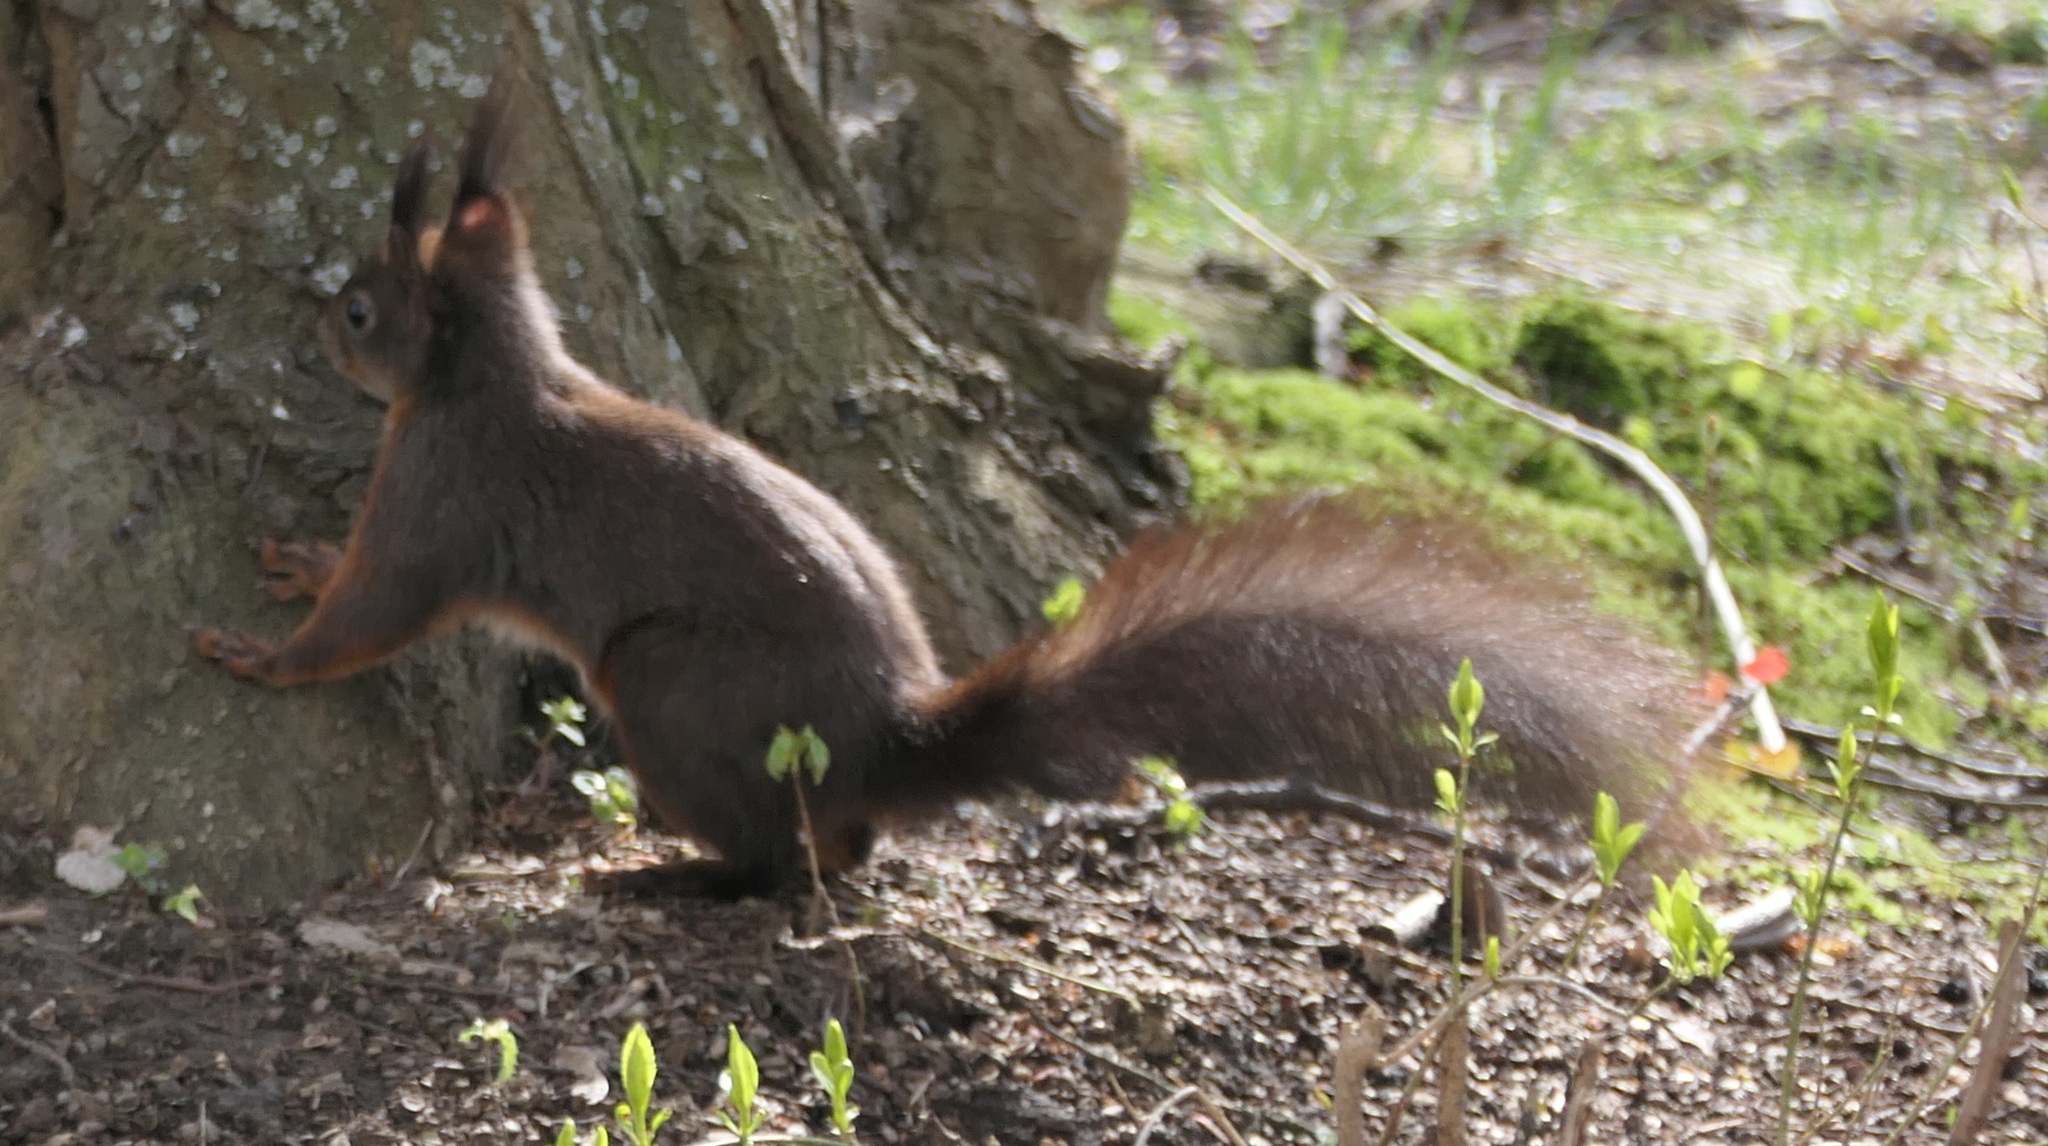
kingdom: Animalia
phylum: Chordata
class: Mammalia
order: Rodentia
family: Sciuridae
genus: Sciurus
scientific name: Sciurus vulgaris
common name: Eurasian red squirrel
